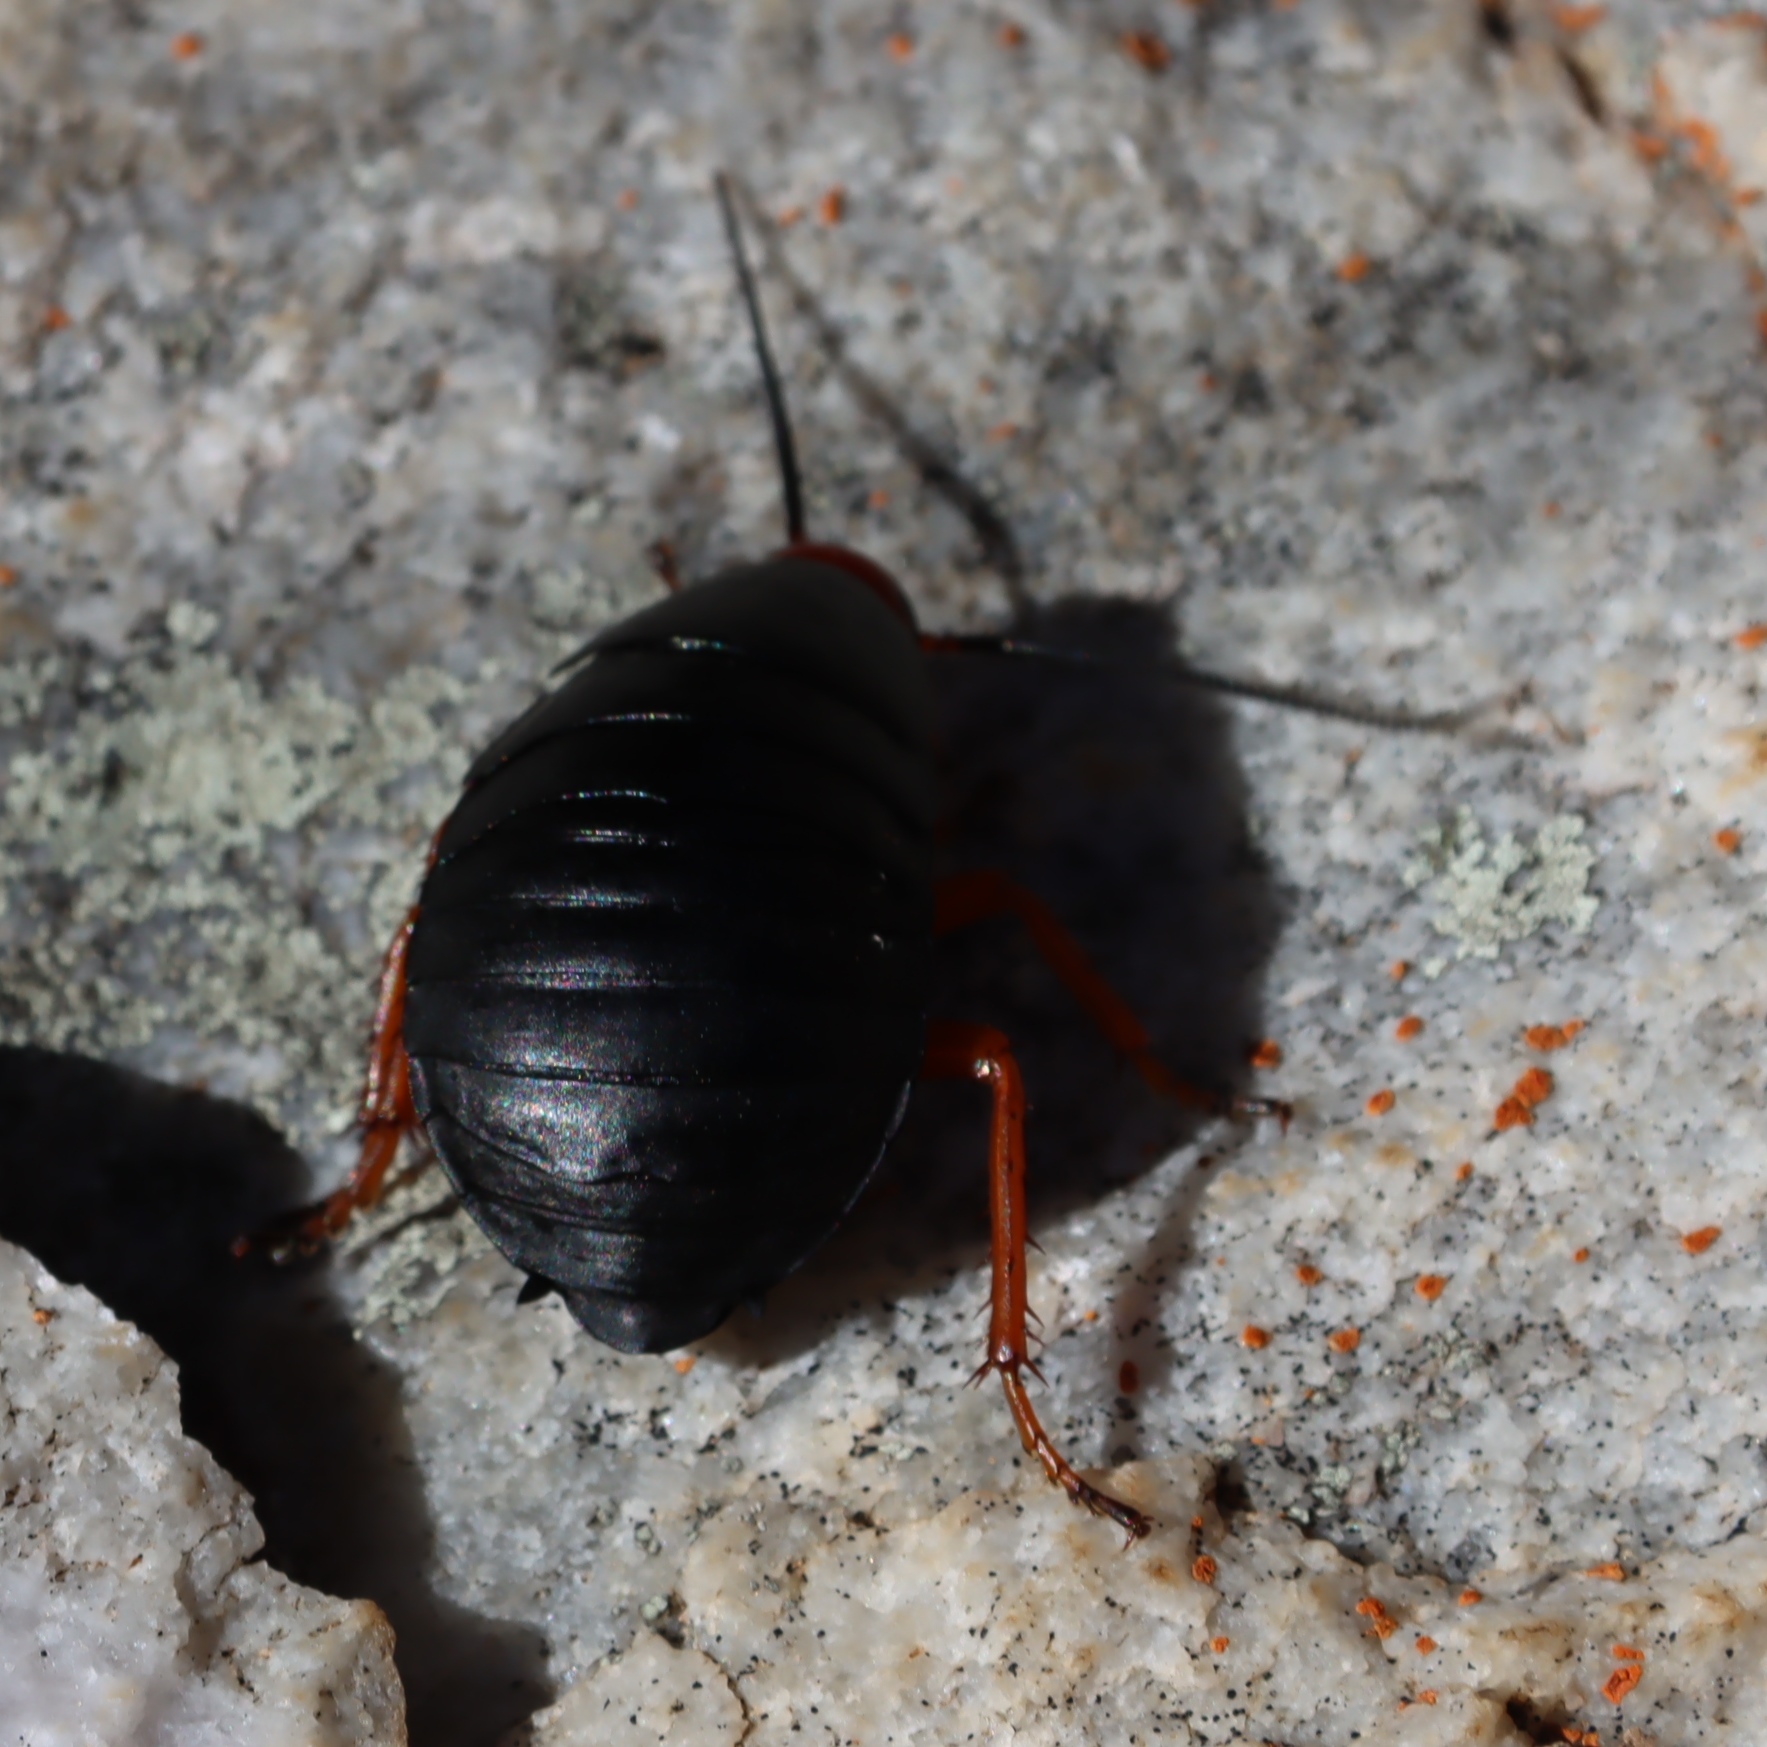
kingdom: Animalia
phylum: Arthropoda
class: Insecta
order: Blattodea
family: Blattidae
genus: Deropeltis
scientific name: Deropeltis erythrocephala
